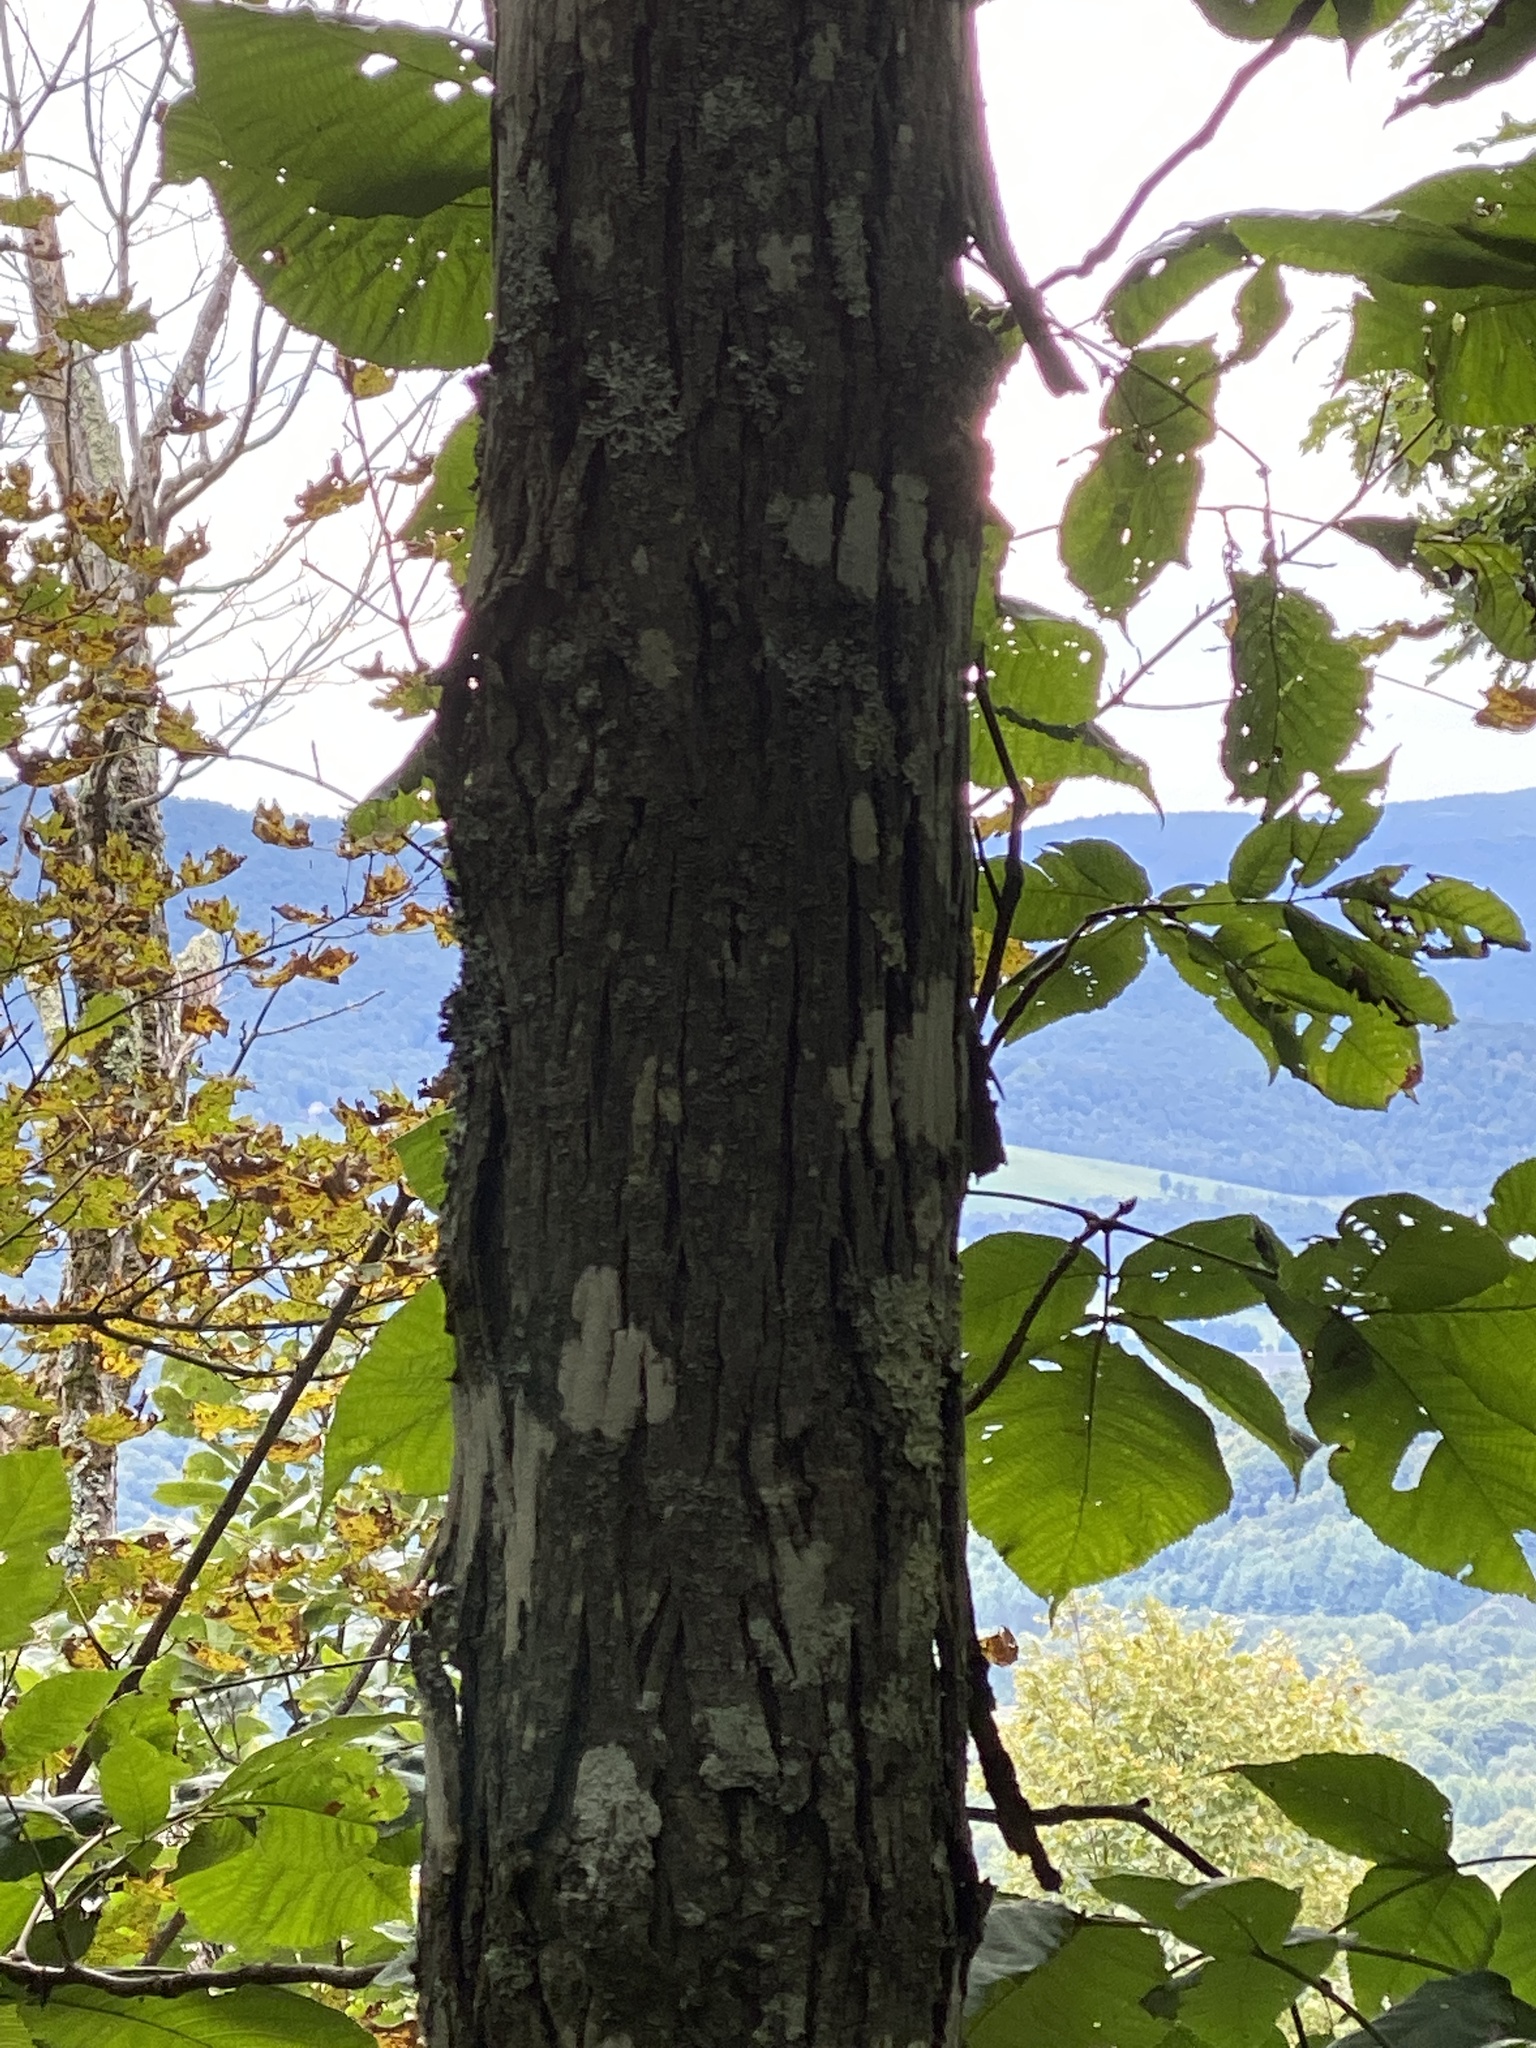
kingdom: Plantae
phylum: Tracheophyta
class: Magnoliopsida
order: Fagales
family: Juglandaceae
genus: Carya
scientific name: Carya ovata
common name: Shagbark hickory
